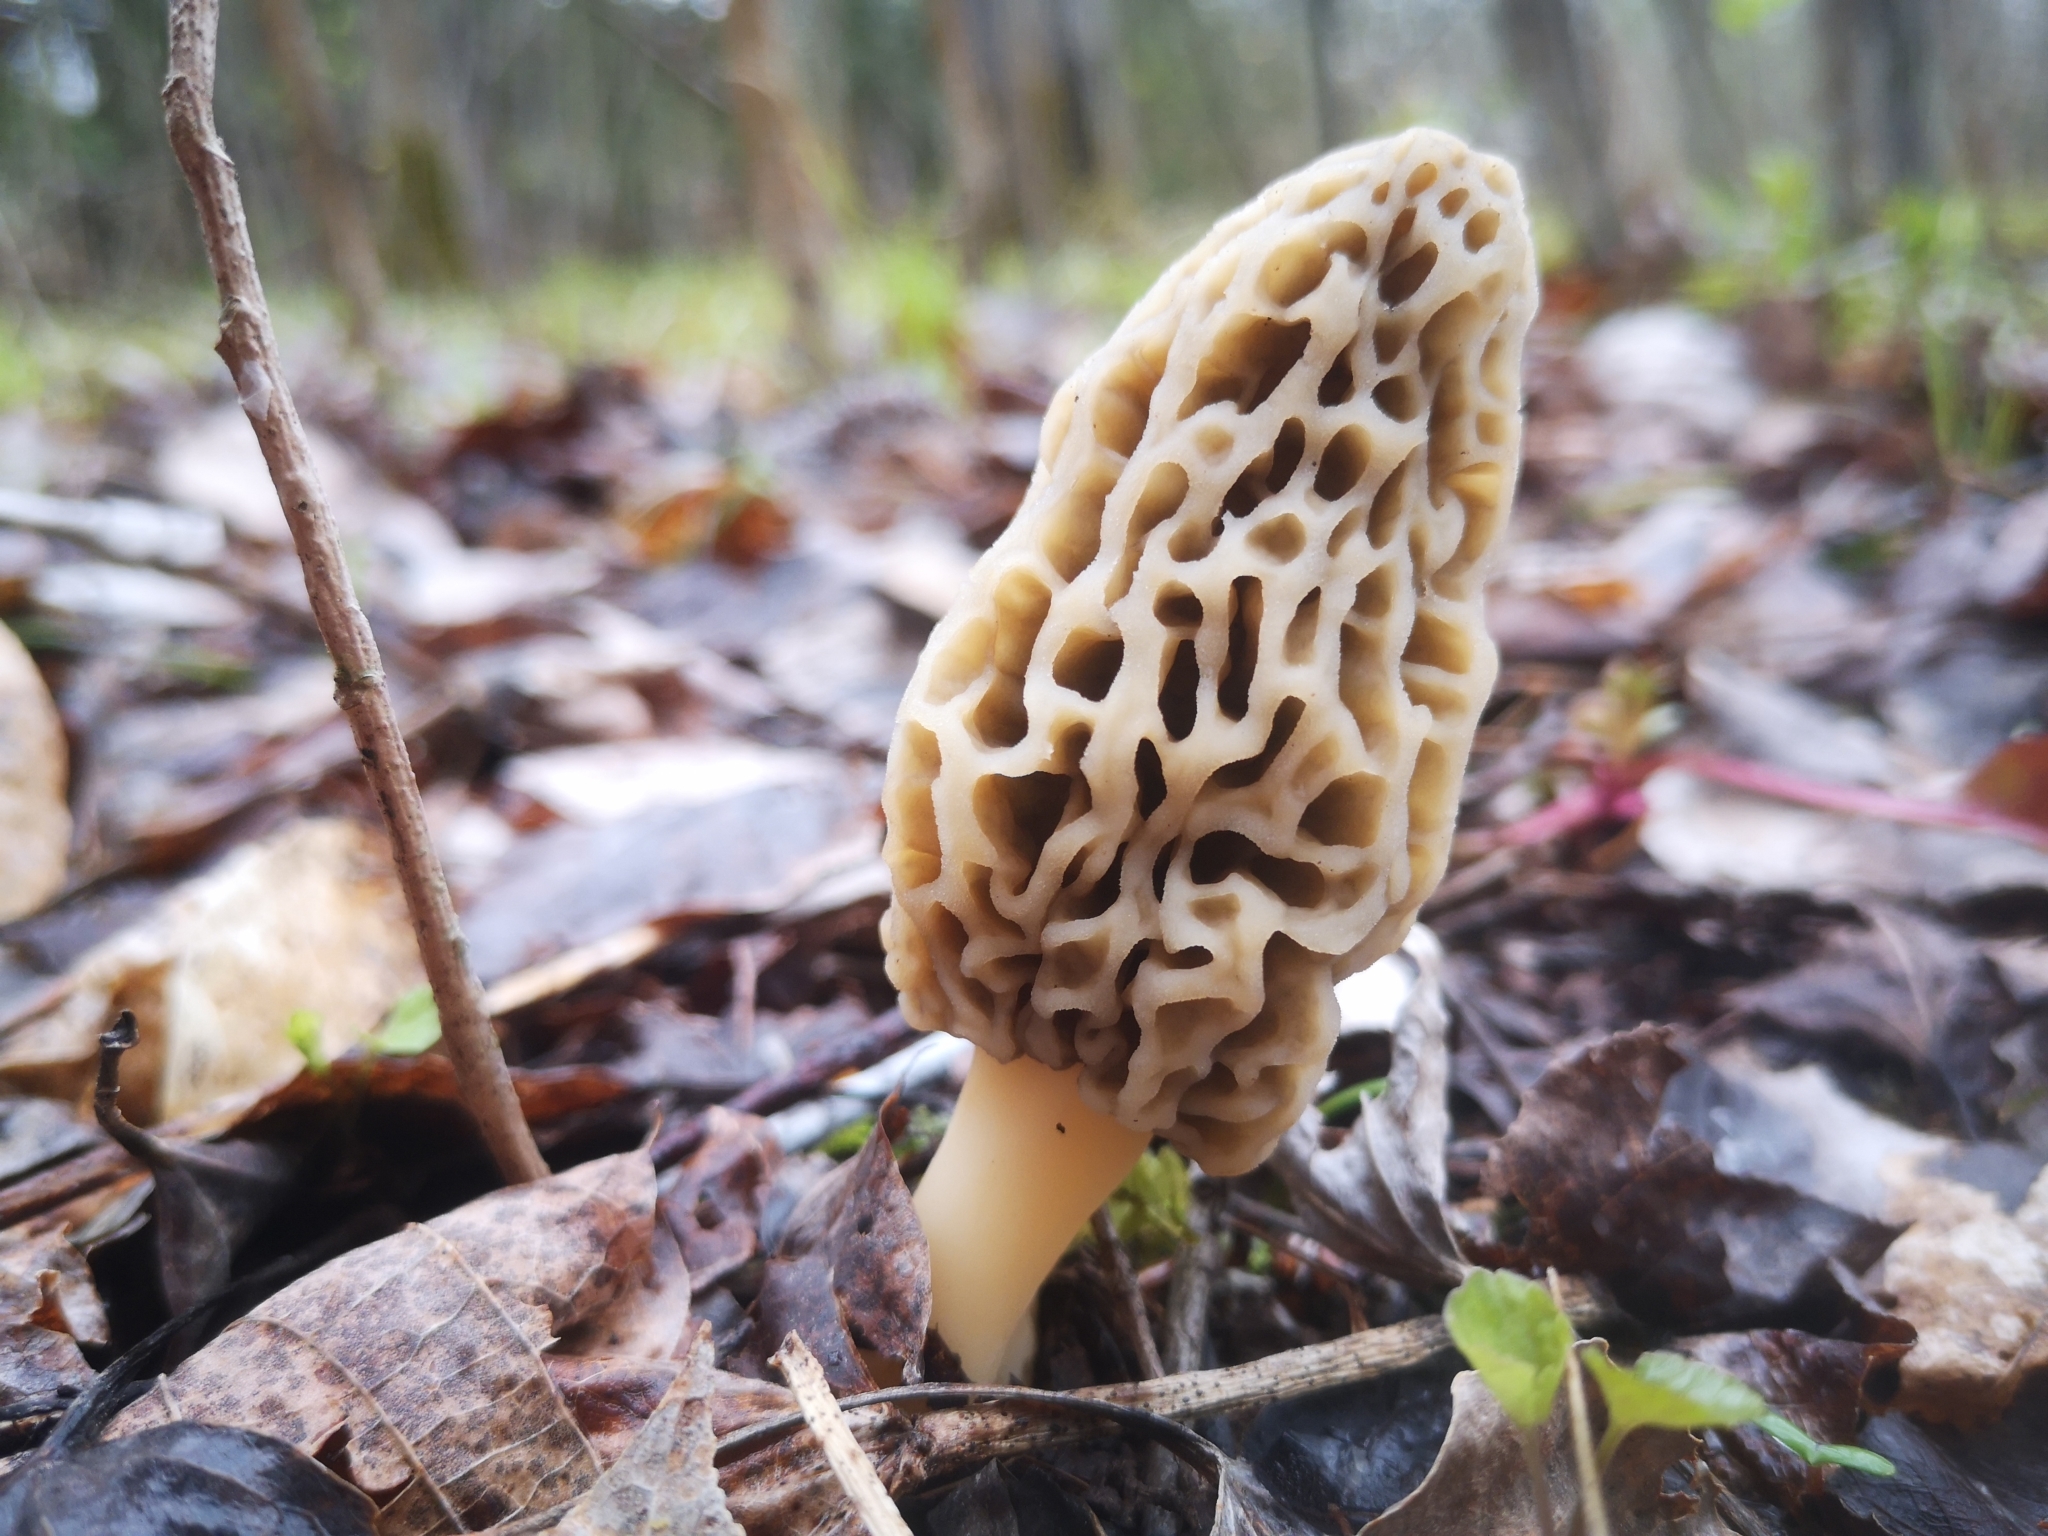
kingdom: Fungi
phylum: Ascomycota
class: Pezizomycetes
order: Pezizales
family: Morchellaceae
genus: Morchella
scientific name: Morchella americana
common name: White morel
